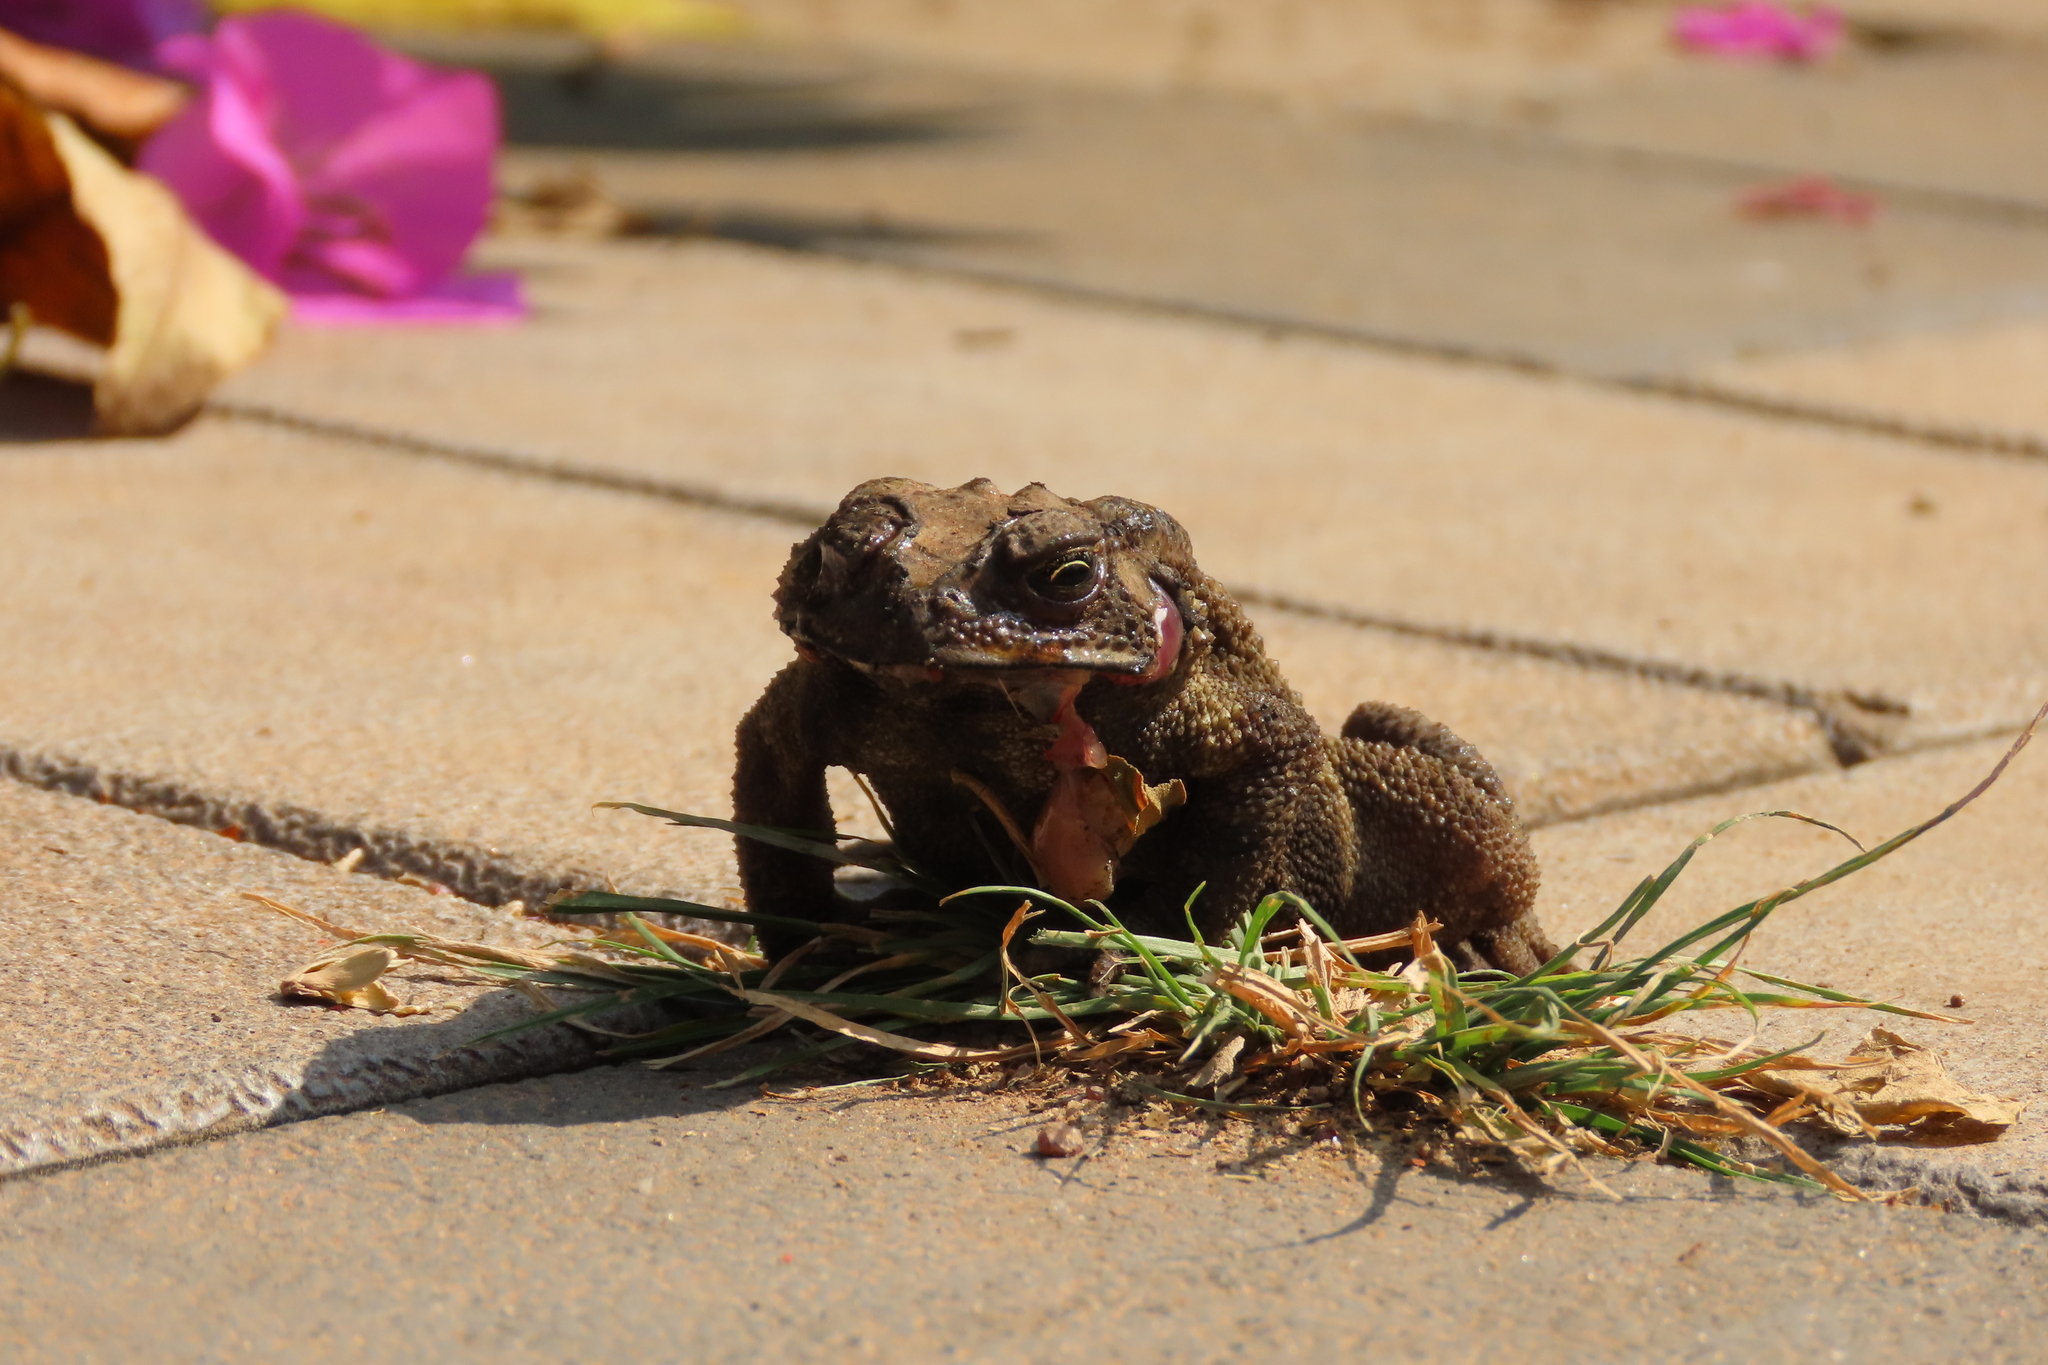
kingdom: Animalia
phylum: Chordata
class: Amphibia
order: Anura
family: Bufonidae
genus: Duttaphrynus
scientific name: Duttaphrynus melanostictus
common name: Common sunda toad
